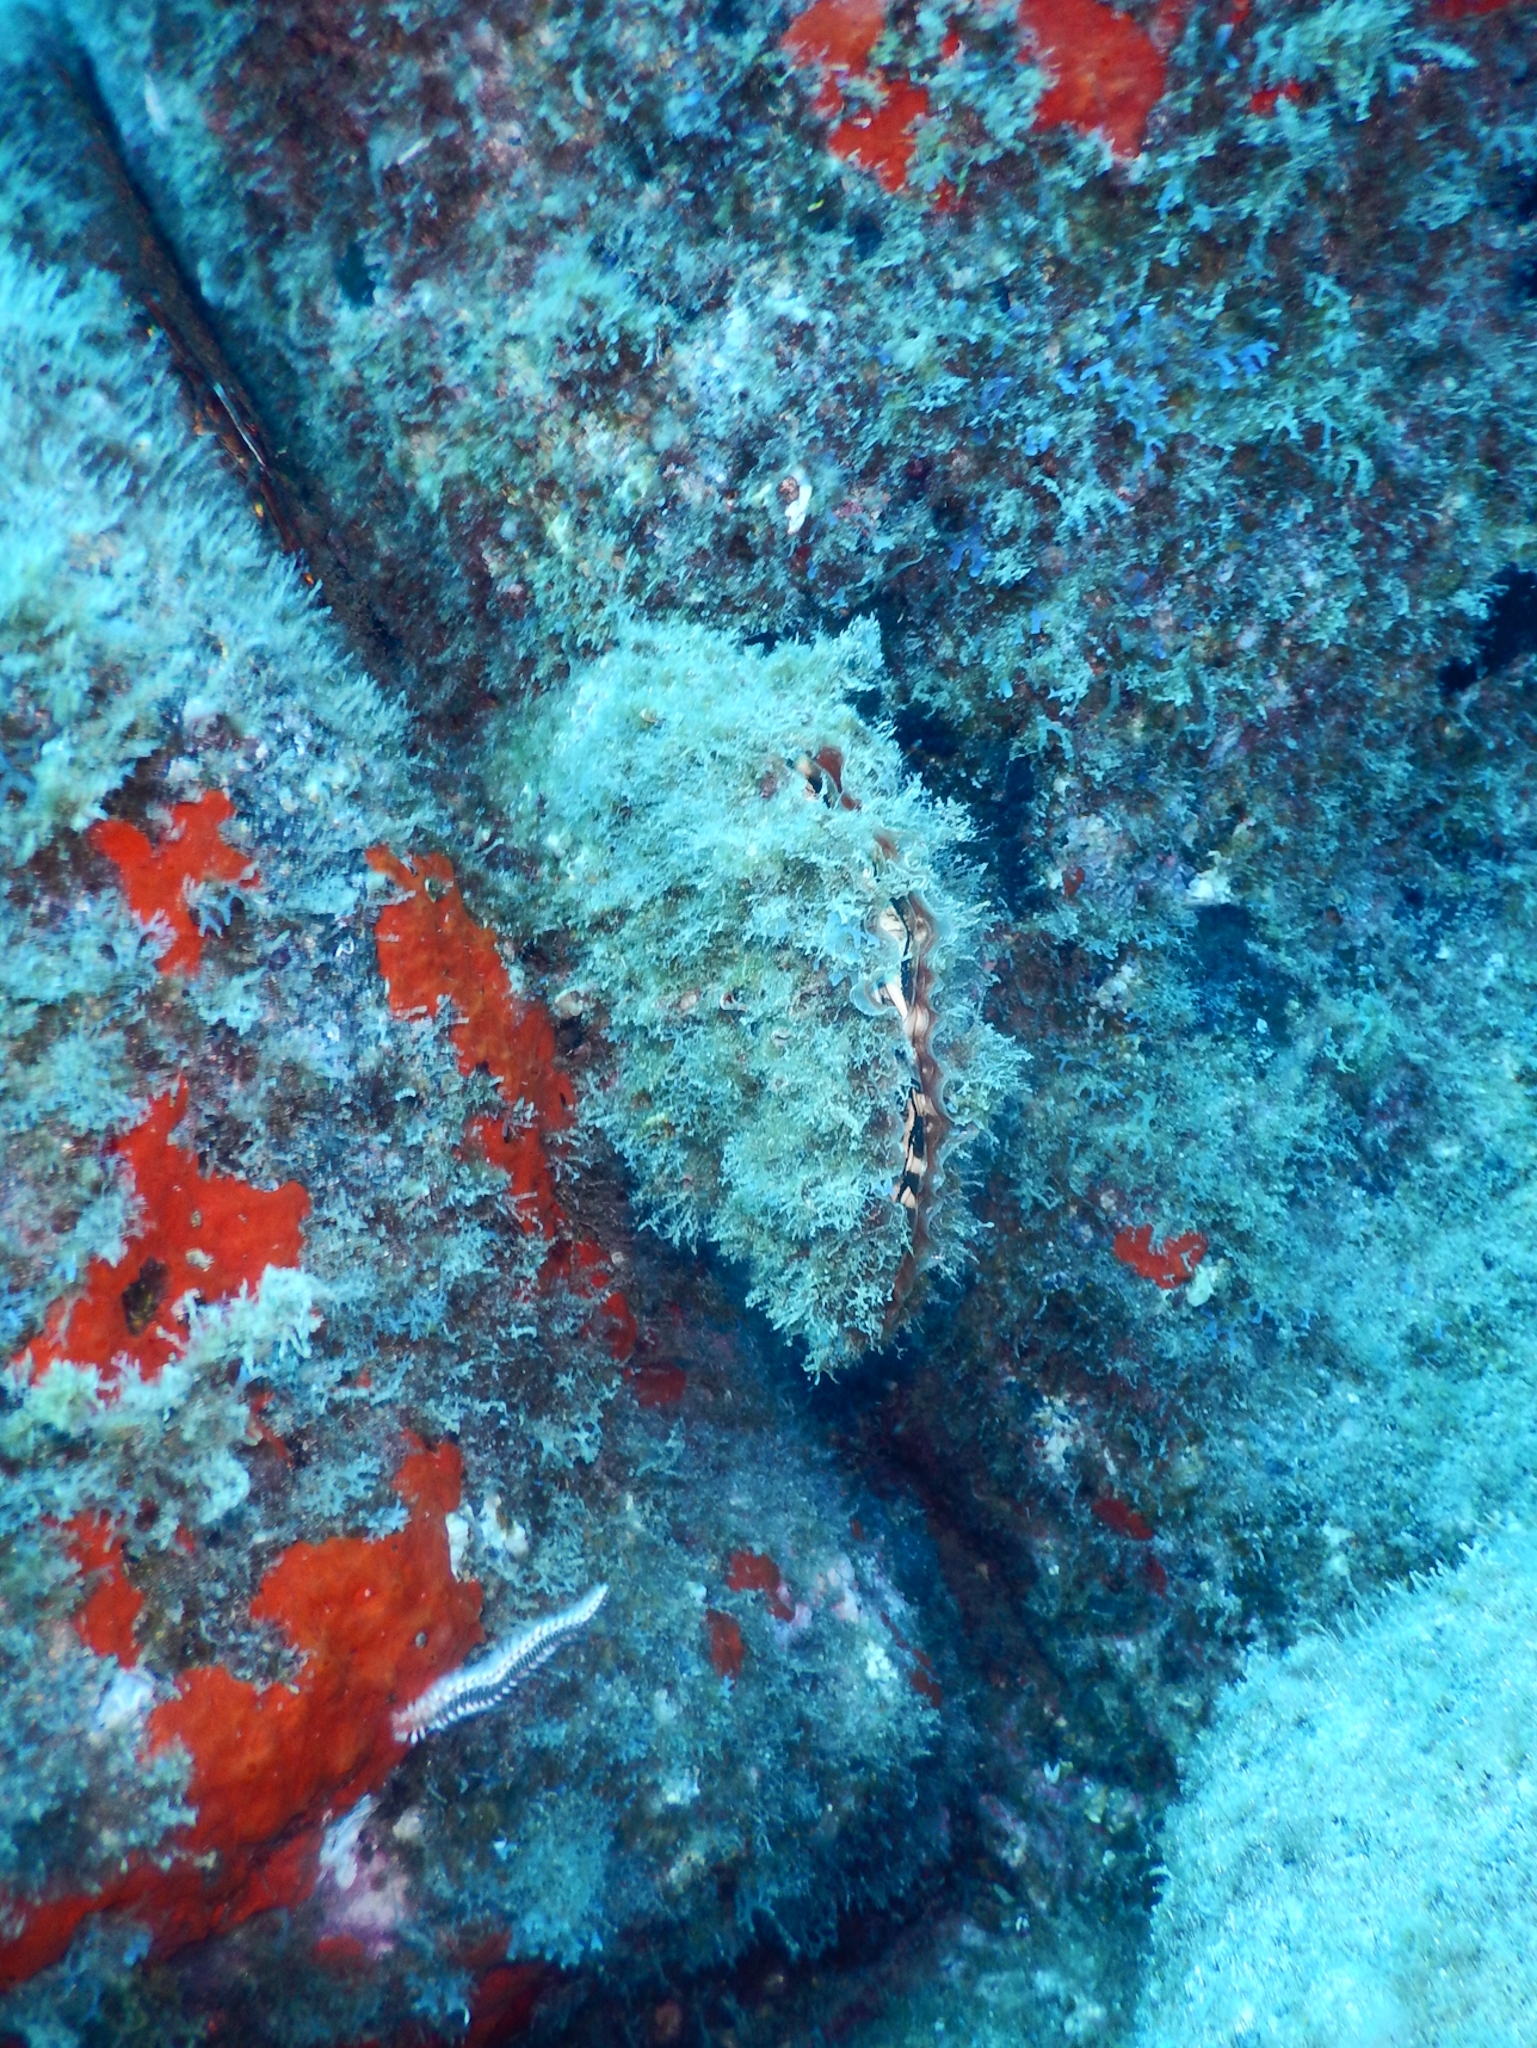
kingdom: Animalia
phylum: Mollusca
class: Bivalvia
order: Ostreida
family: Pinnidae
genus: Pinna
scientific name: Pinna rudis
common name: Rough penshell
